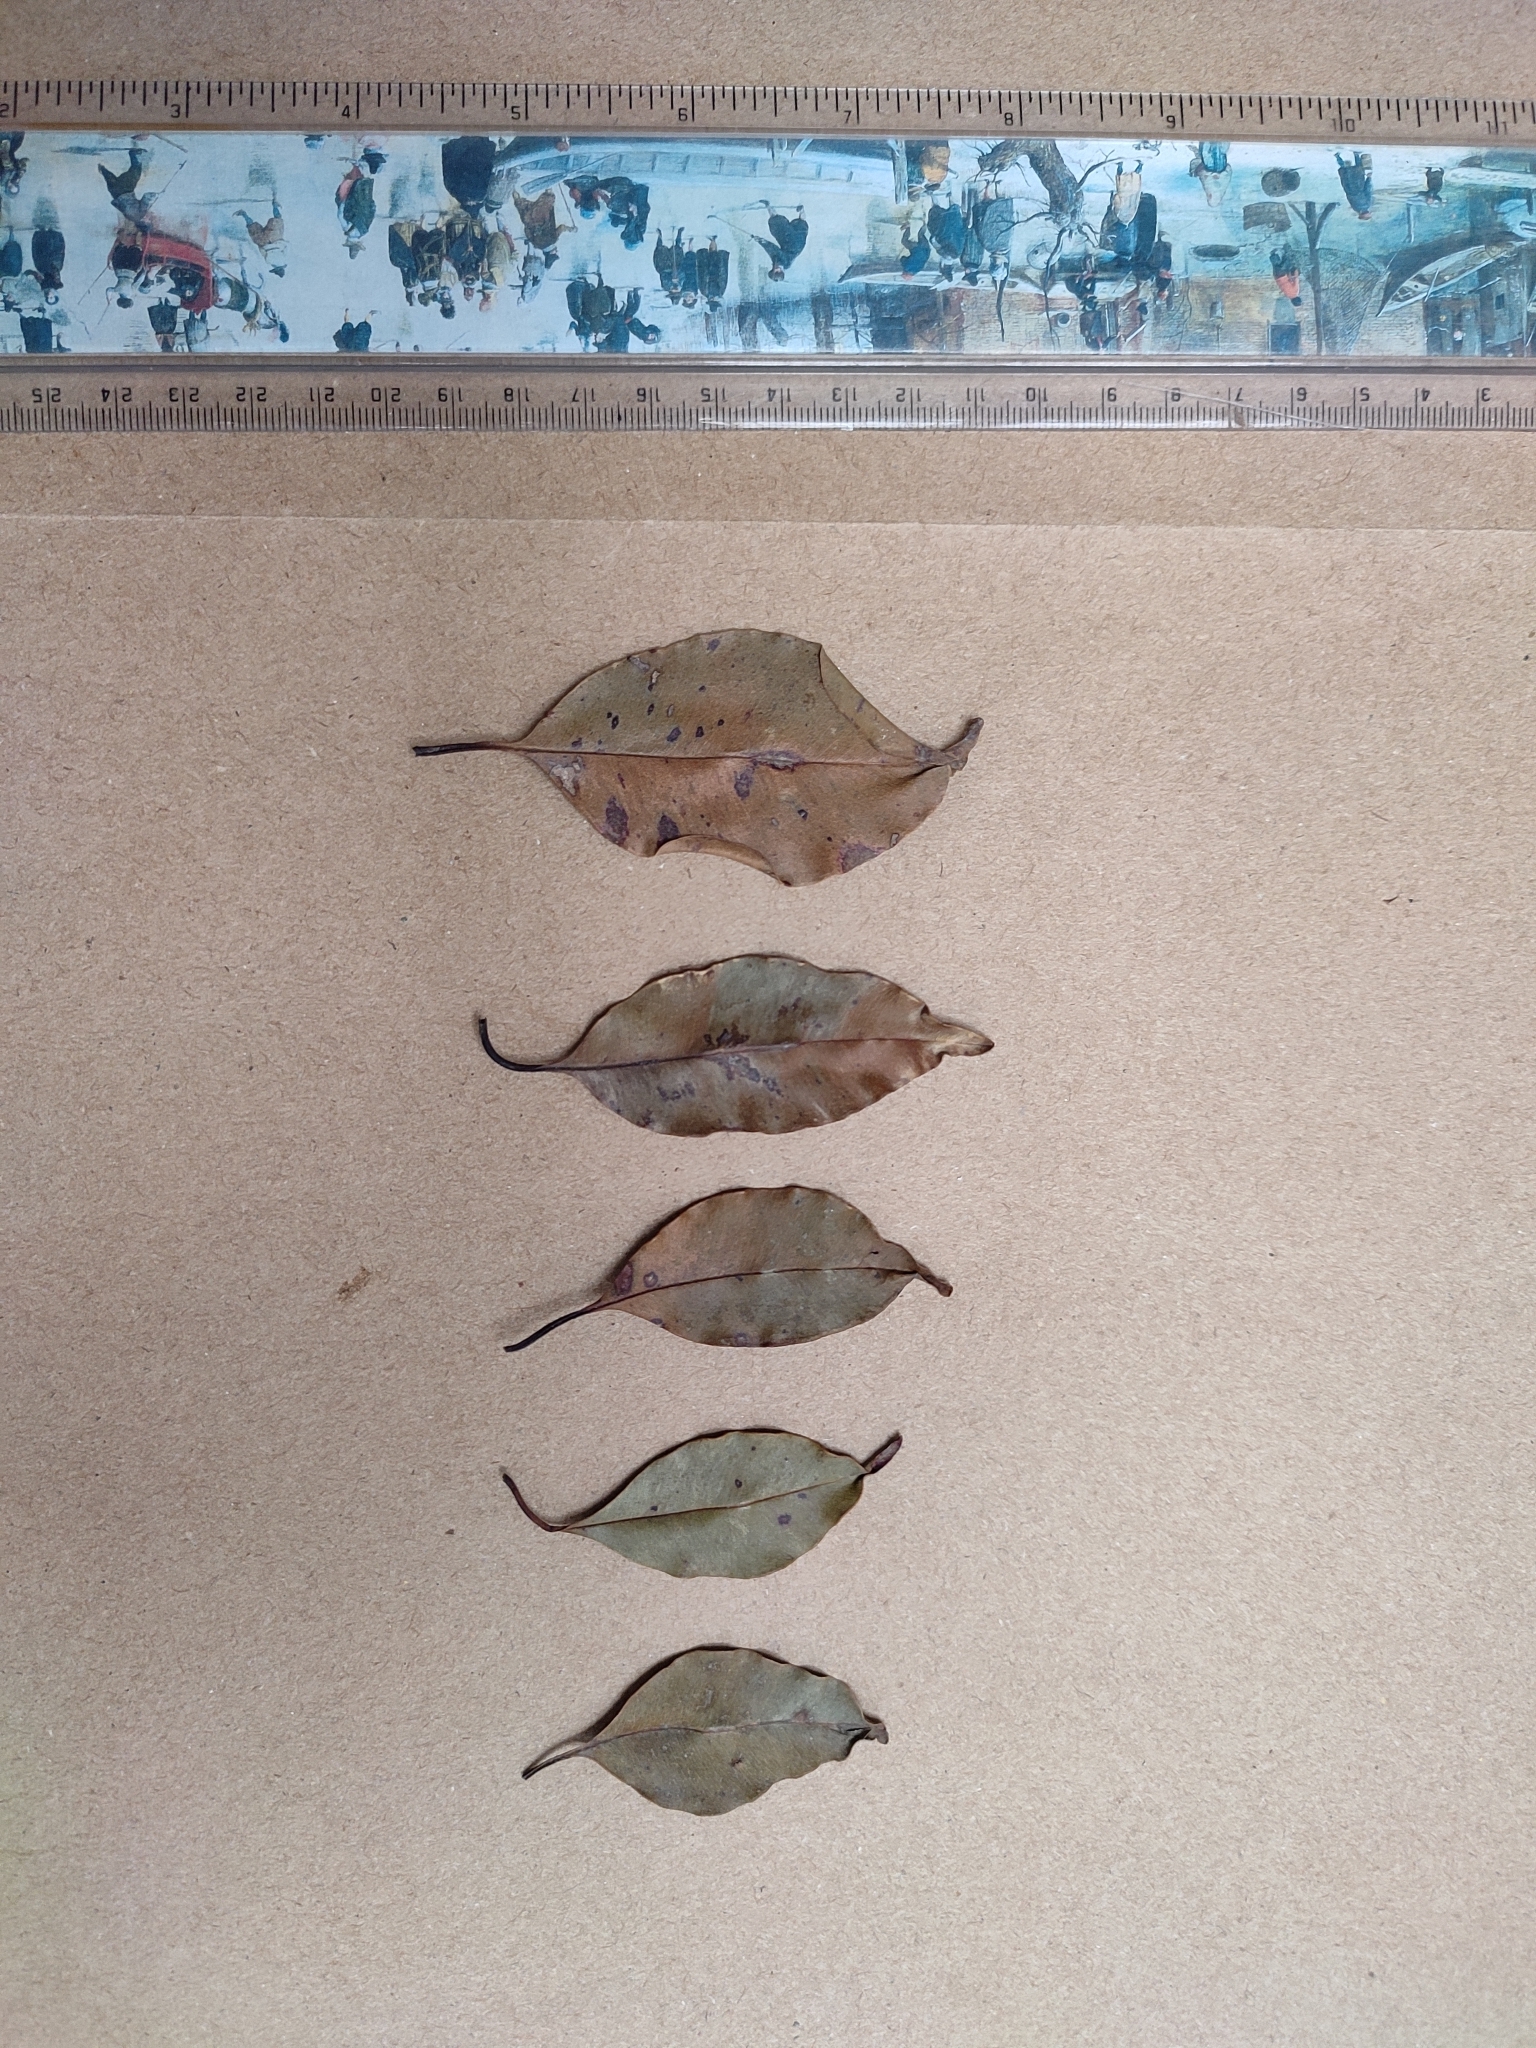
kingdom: Plantae
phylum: Tracheophyta
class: Magnoliopsida
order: Myrtales
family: Myrtaceae
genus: Syzygium
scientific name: Syzygium densiflorum
